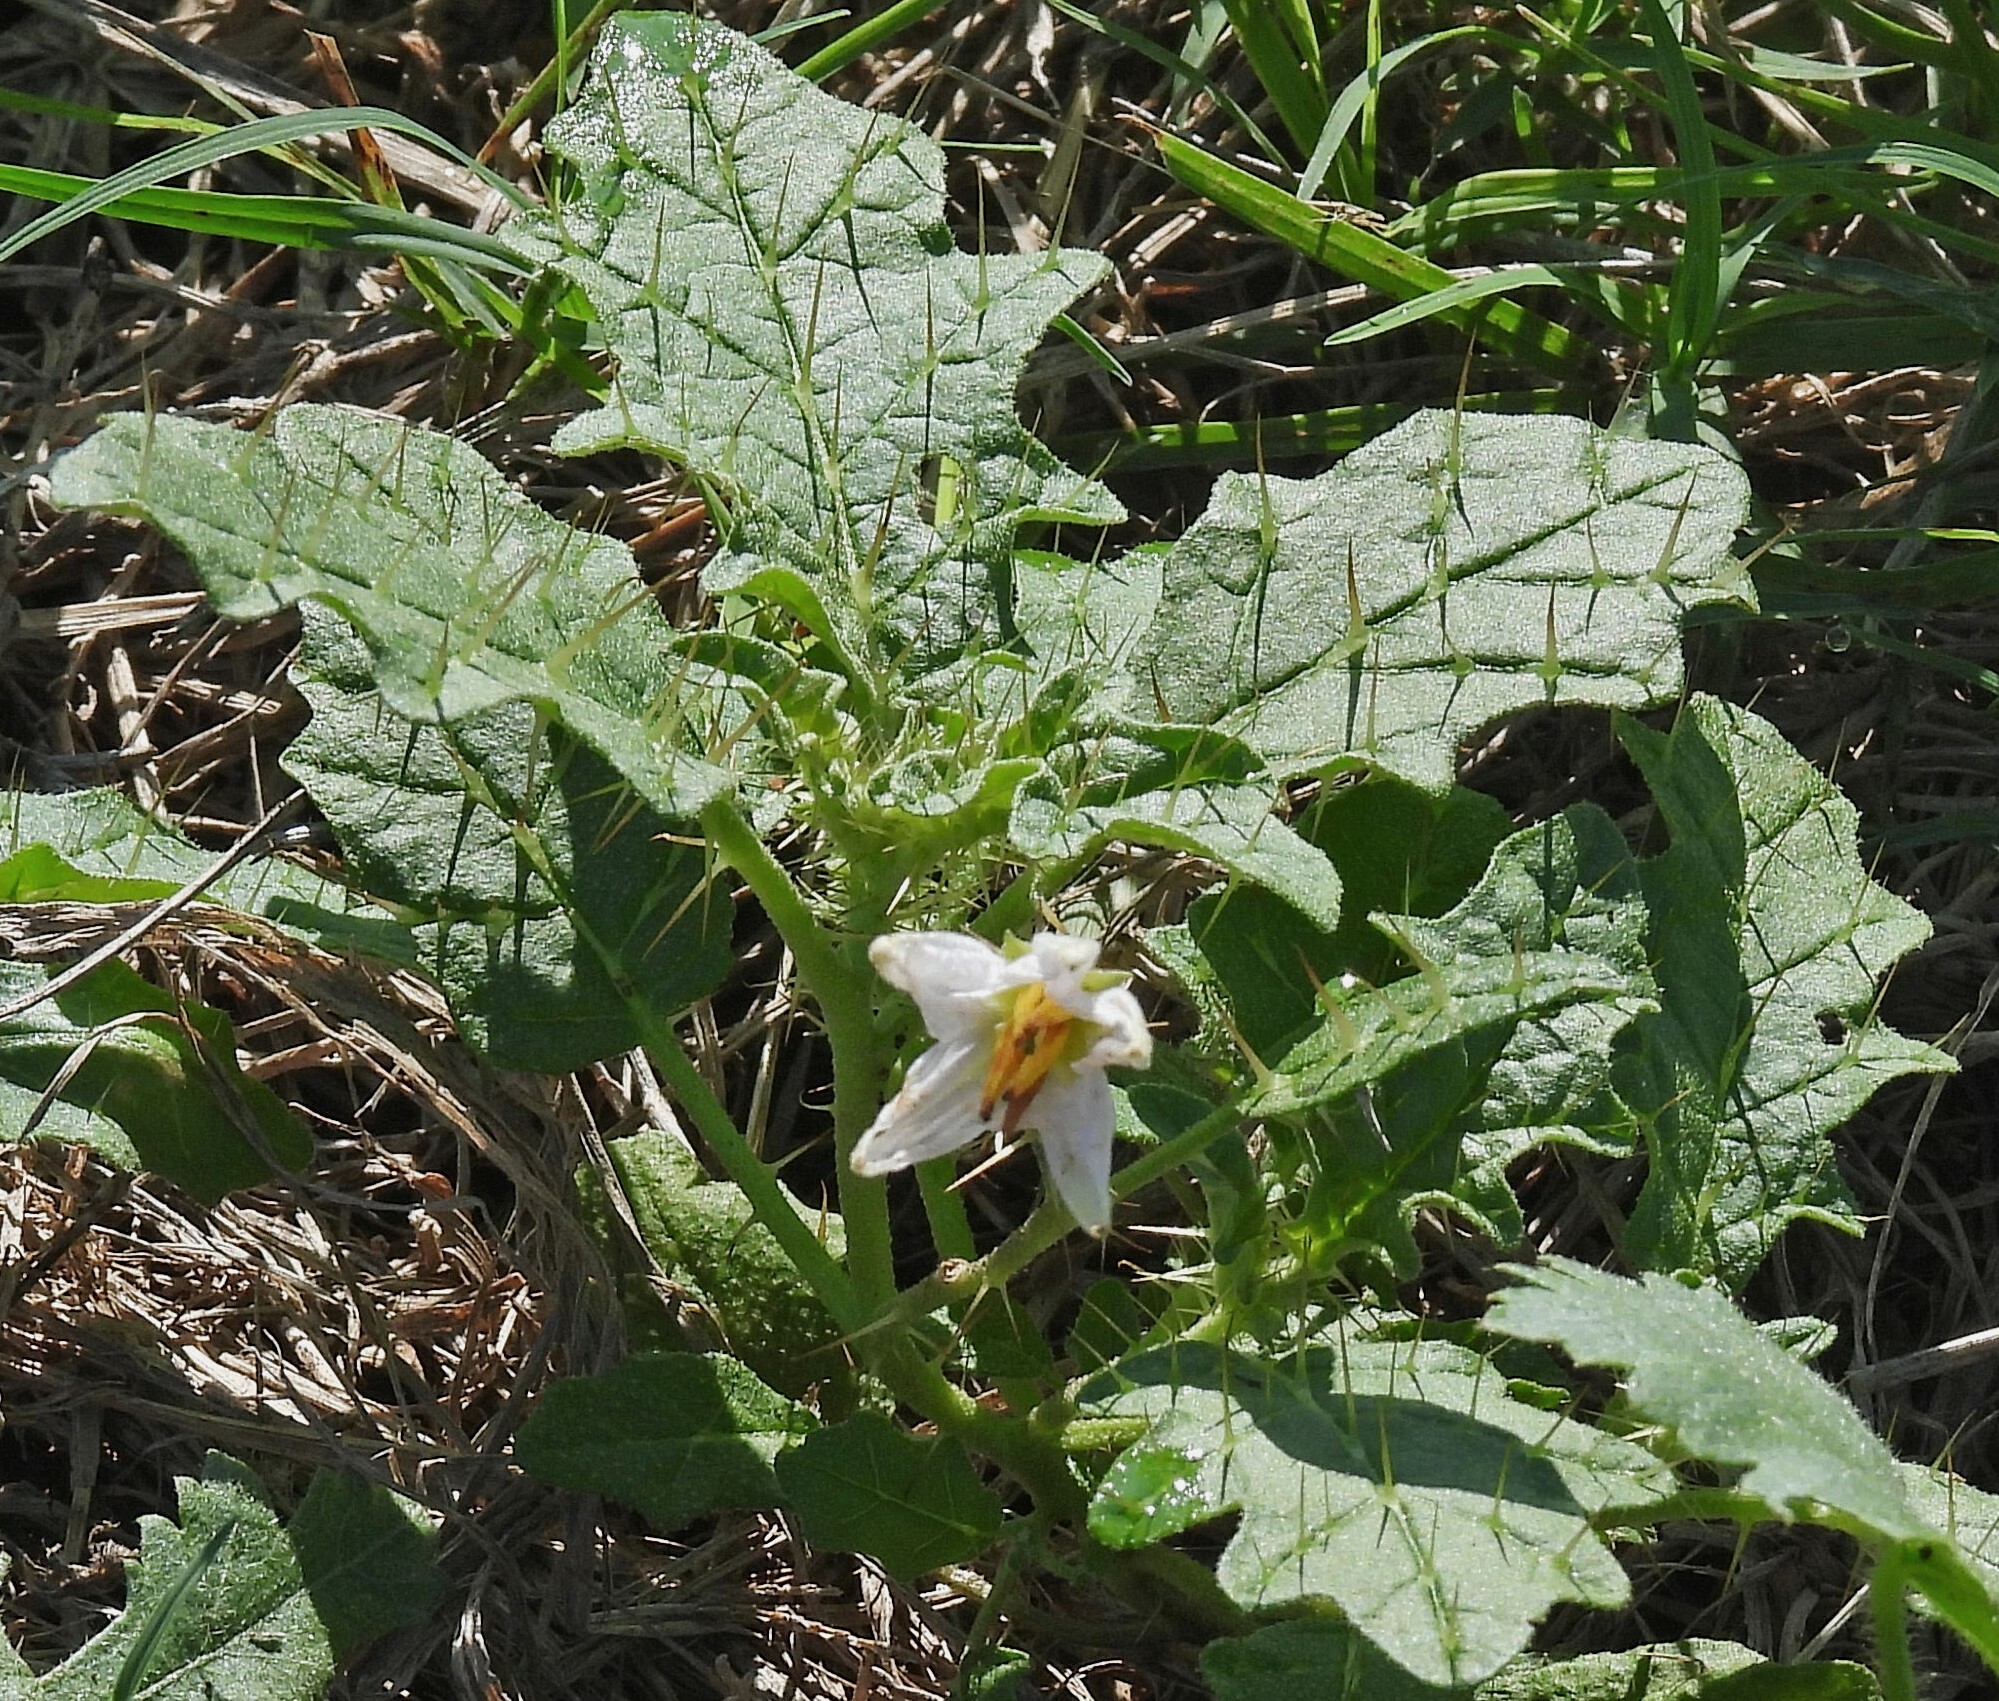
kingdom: Plantae
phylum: Tracheophyta
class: Magnoliopsida
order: Solanales
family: Solanaceae
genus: Solanum
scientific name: Solanum juvenale
